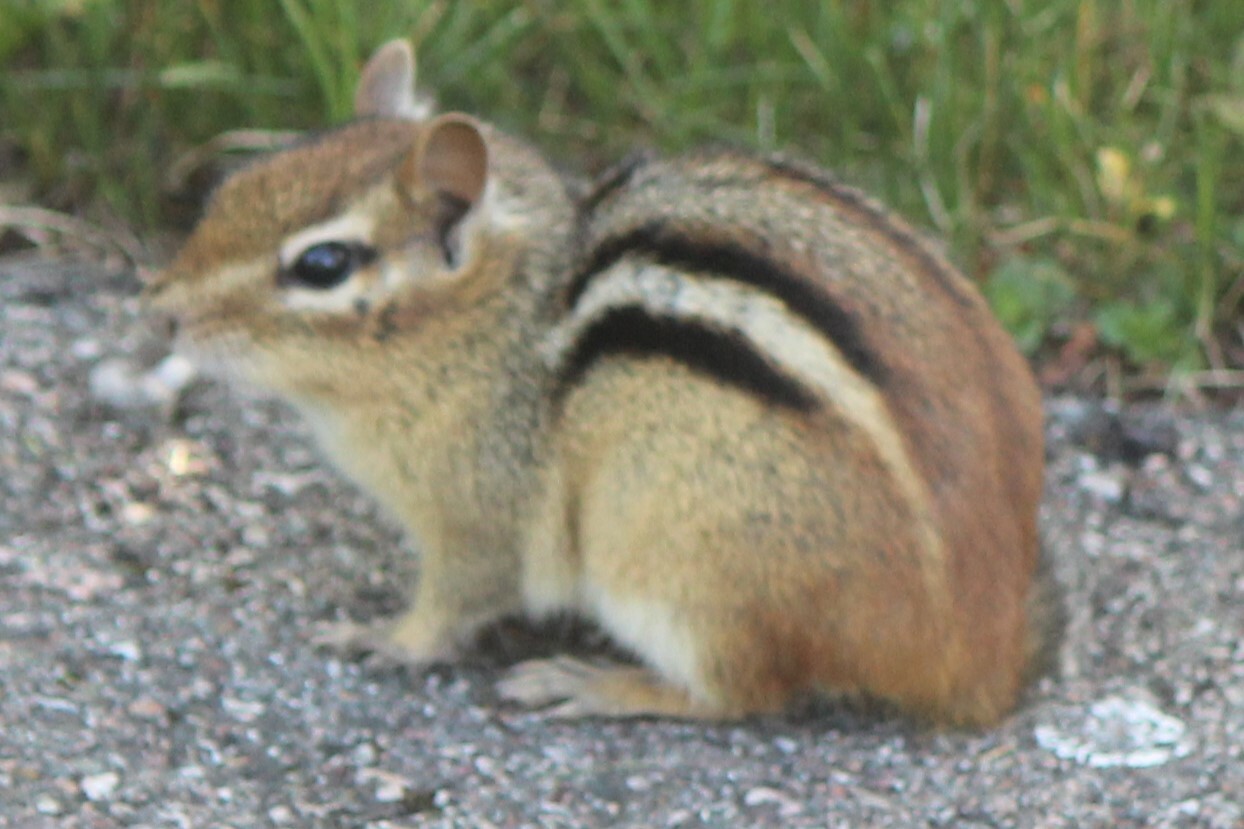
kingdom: Animalia
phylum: Chordata
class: Mammalia
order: Rodentia
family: Sciuridae
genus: Tamias
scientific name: Tamias striatus
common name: Eastern chipmunk
